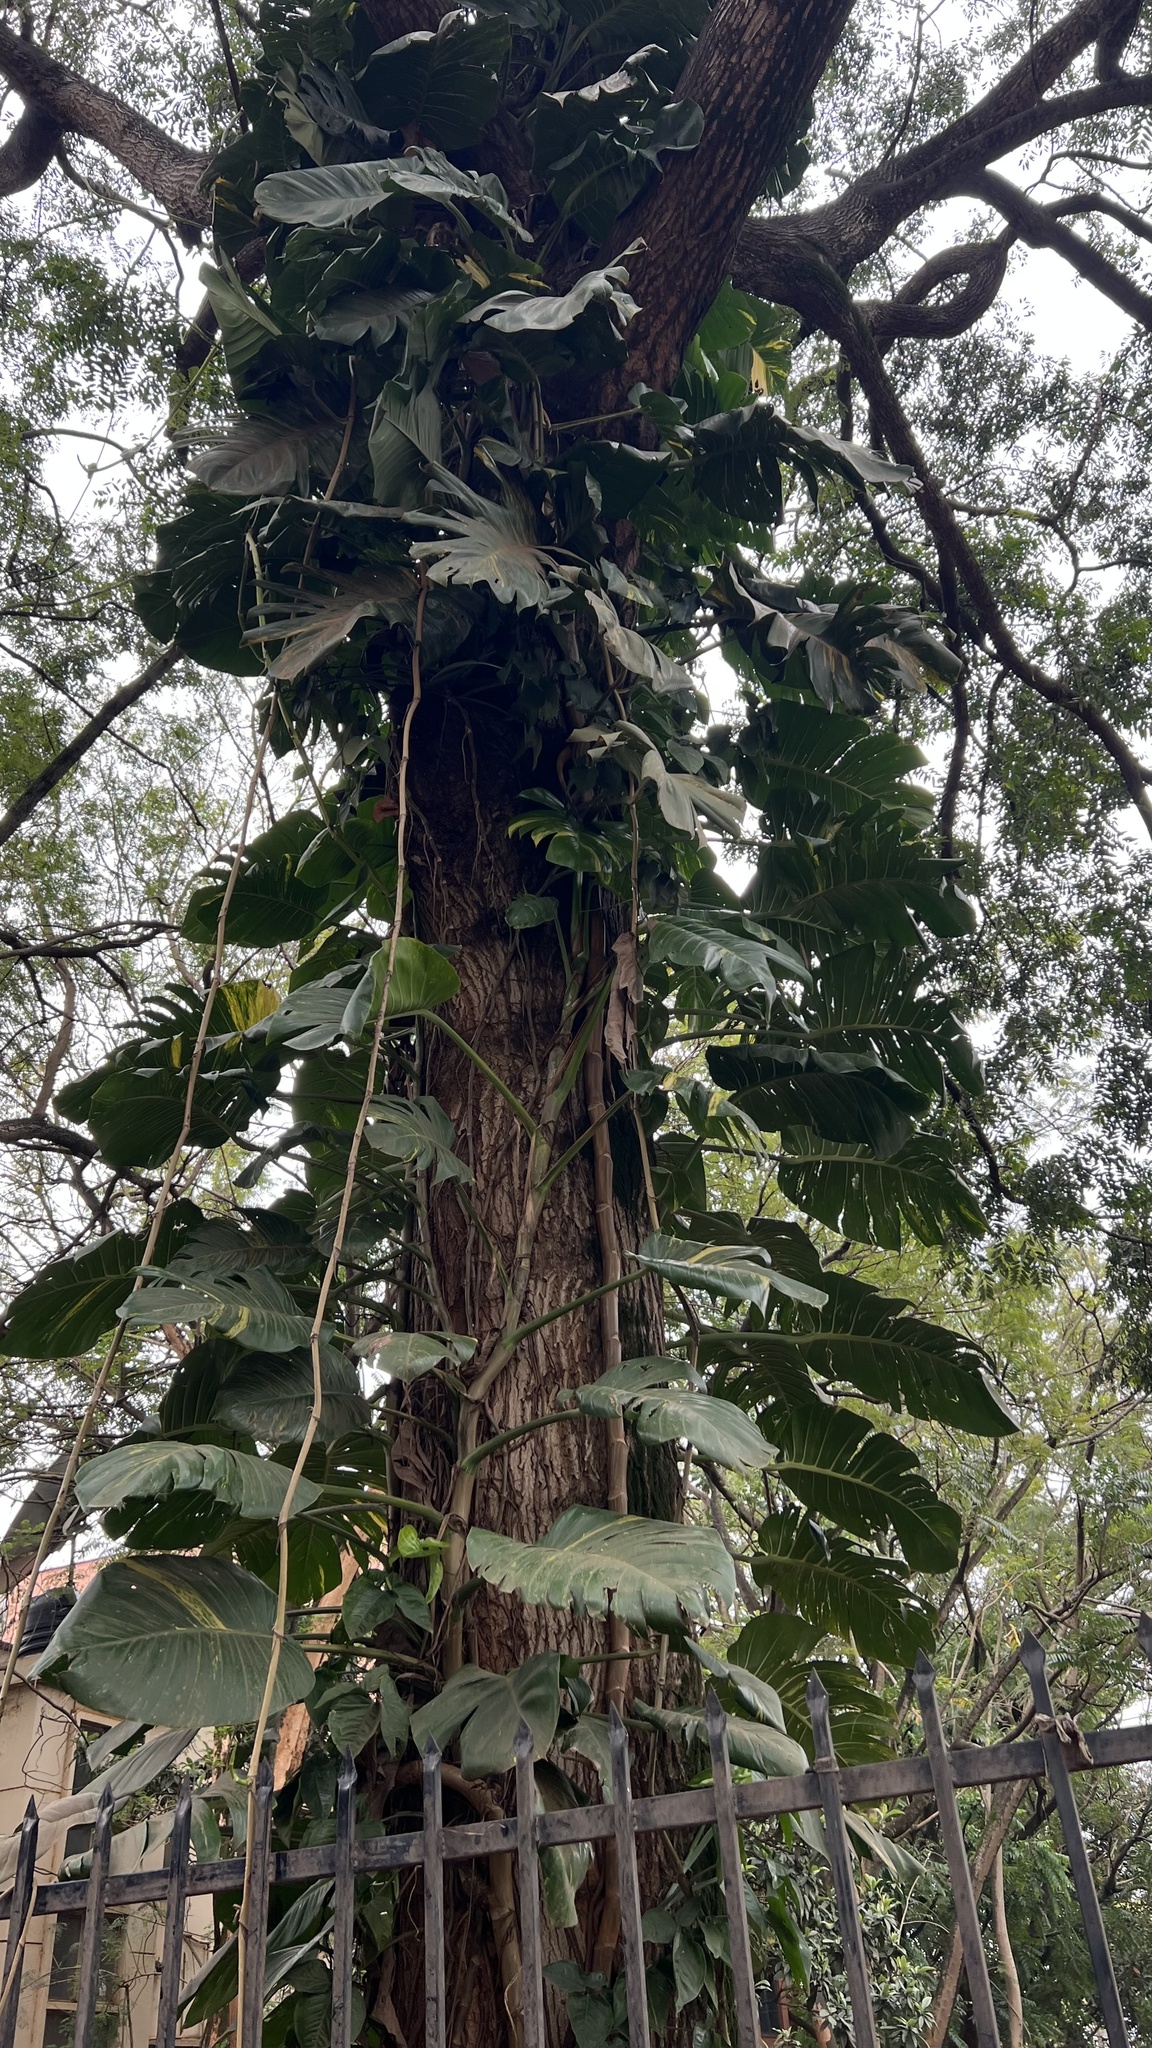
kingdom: Plantae
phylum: Tracheophyta
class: Liliopsida
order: Alismatales
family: Araceae
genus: Epipremnum
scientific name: Epipremnum aureum
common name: Golden hunter's-robe
